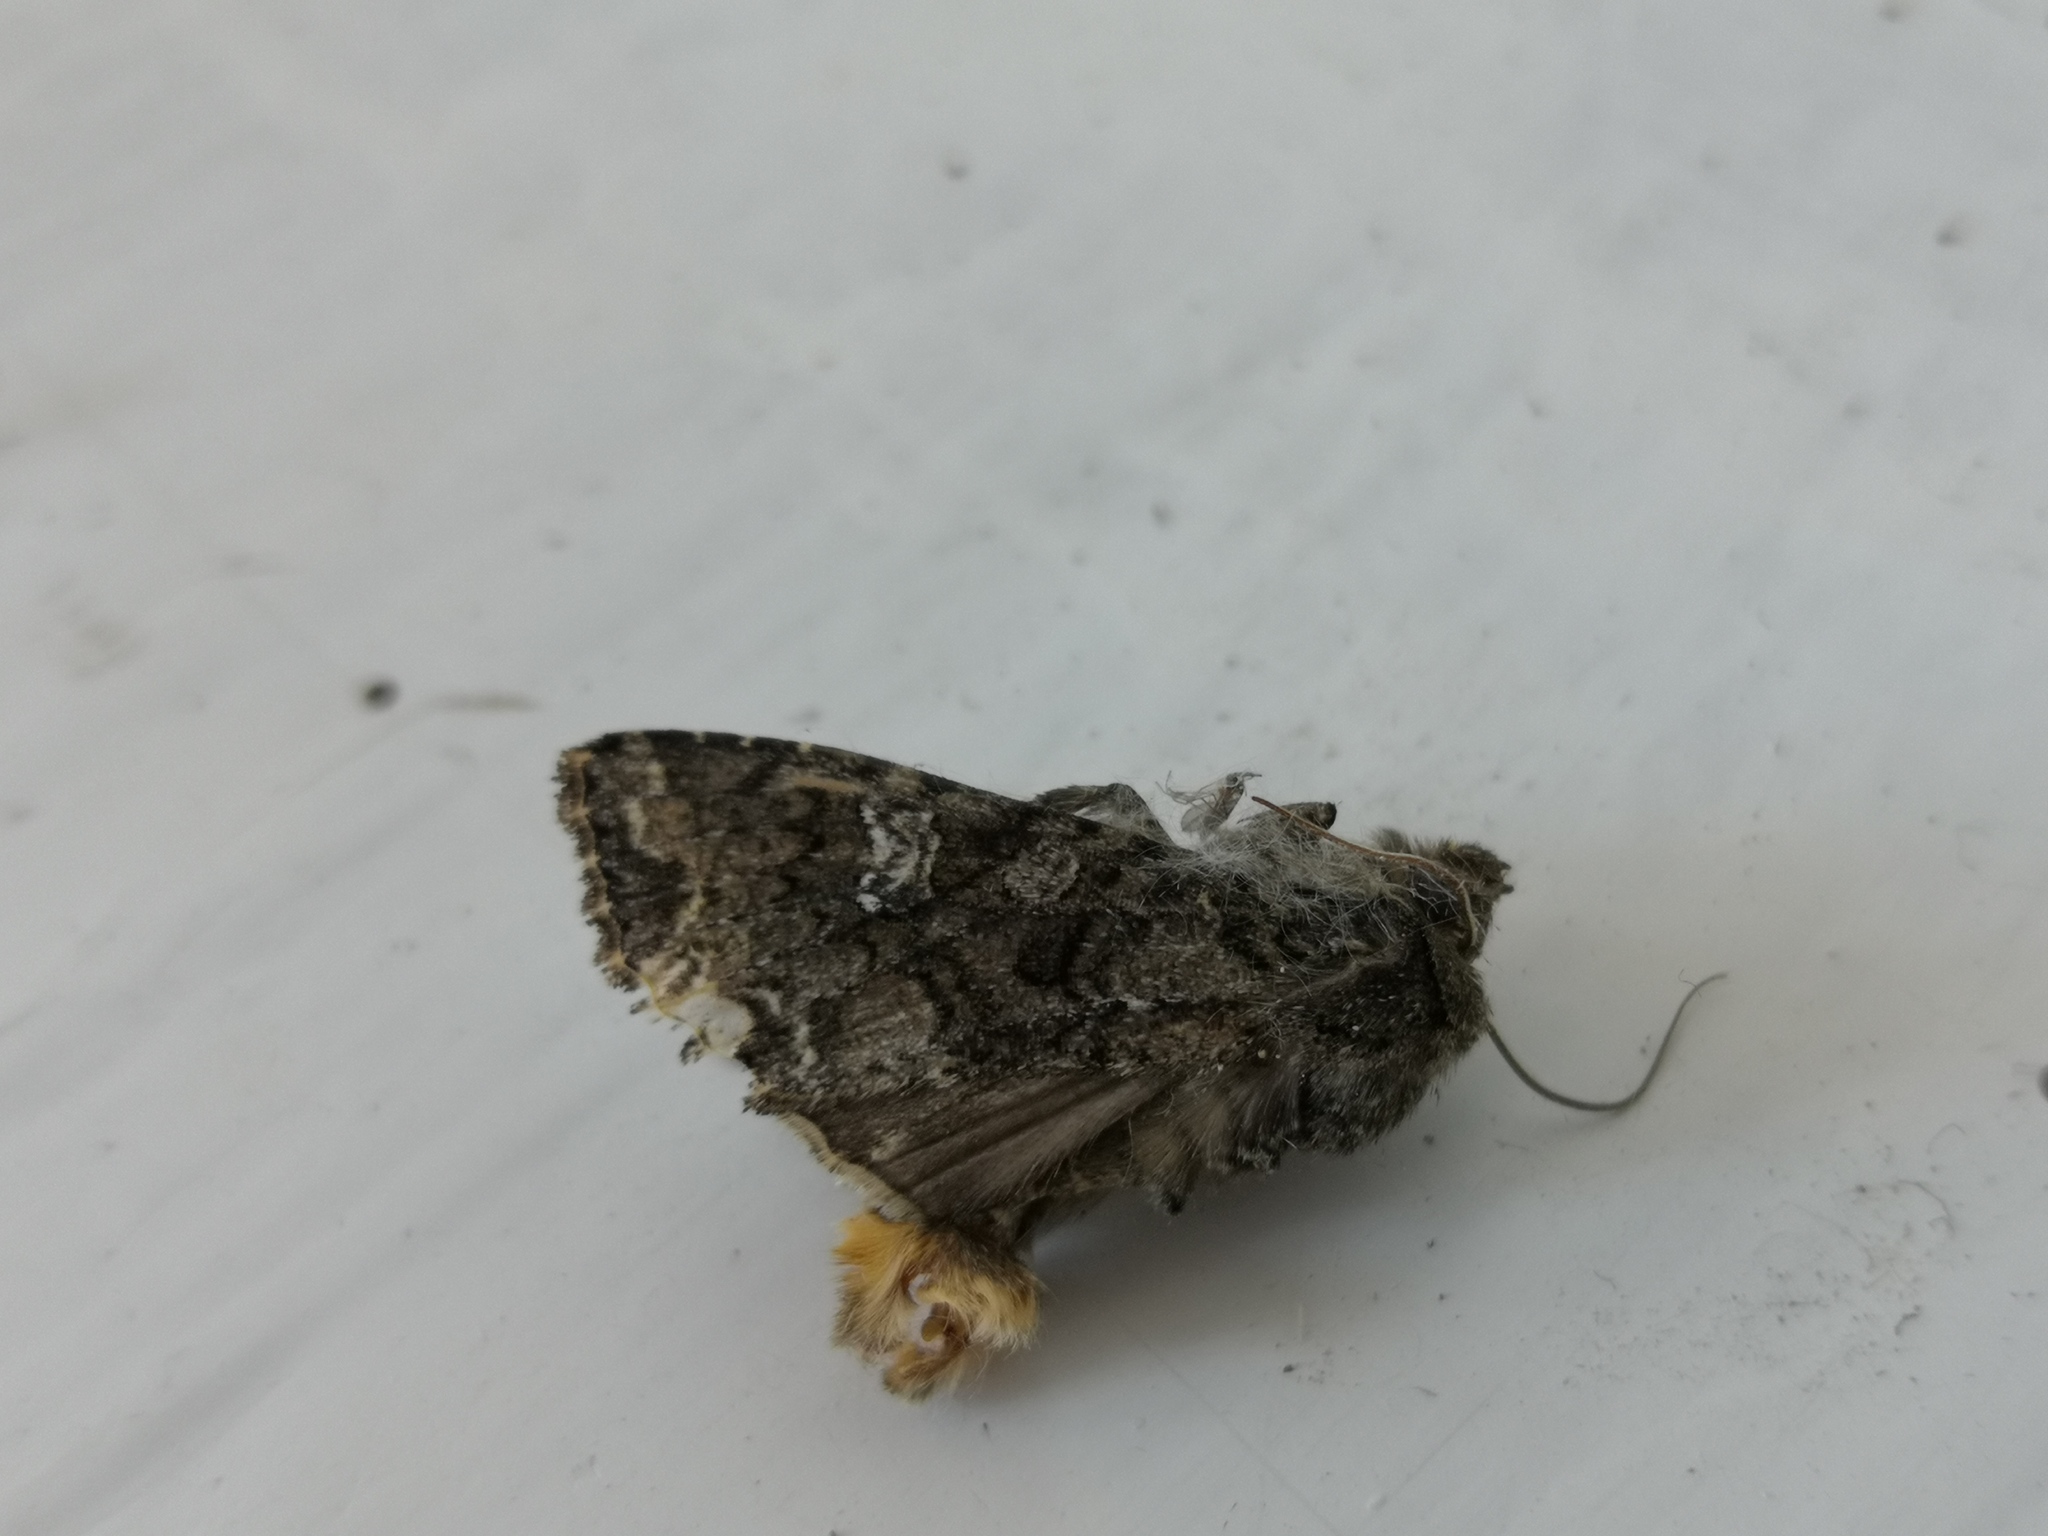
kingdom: Animalia
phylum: Arthropoda
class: Insecta
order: Lepidoptera
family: Noctuidae
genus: Mamestra
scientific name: Mamestra brassicae
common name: Cabbage moth
